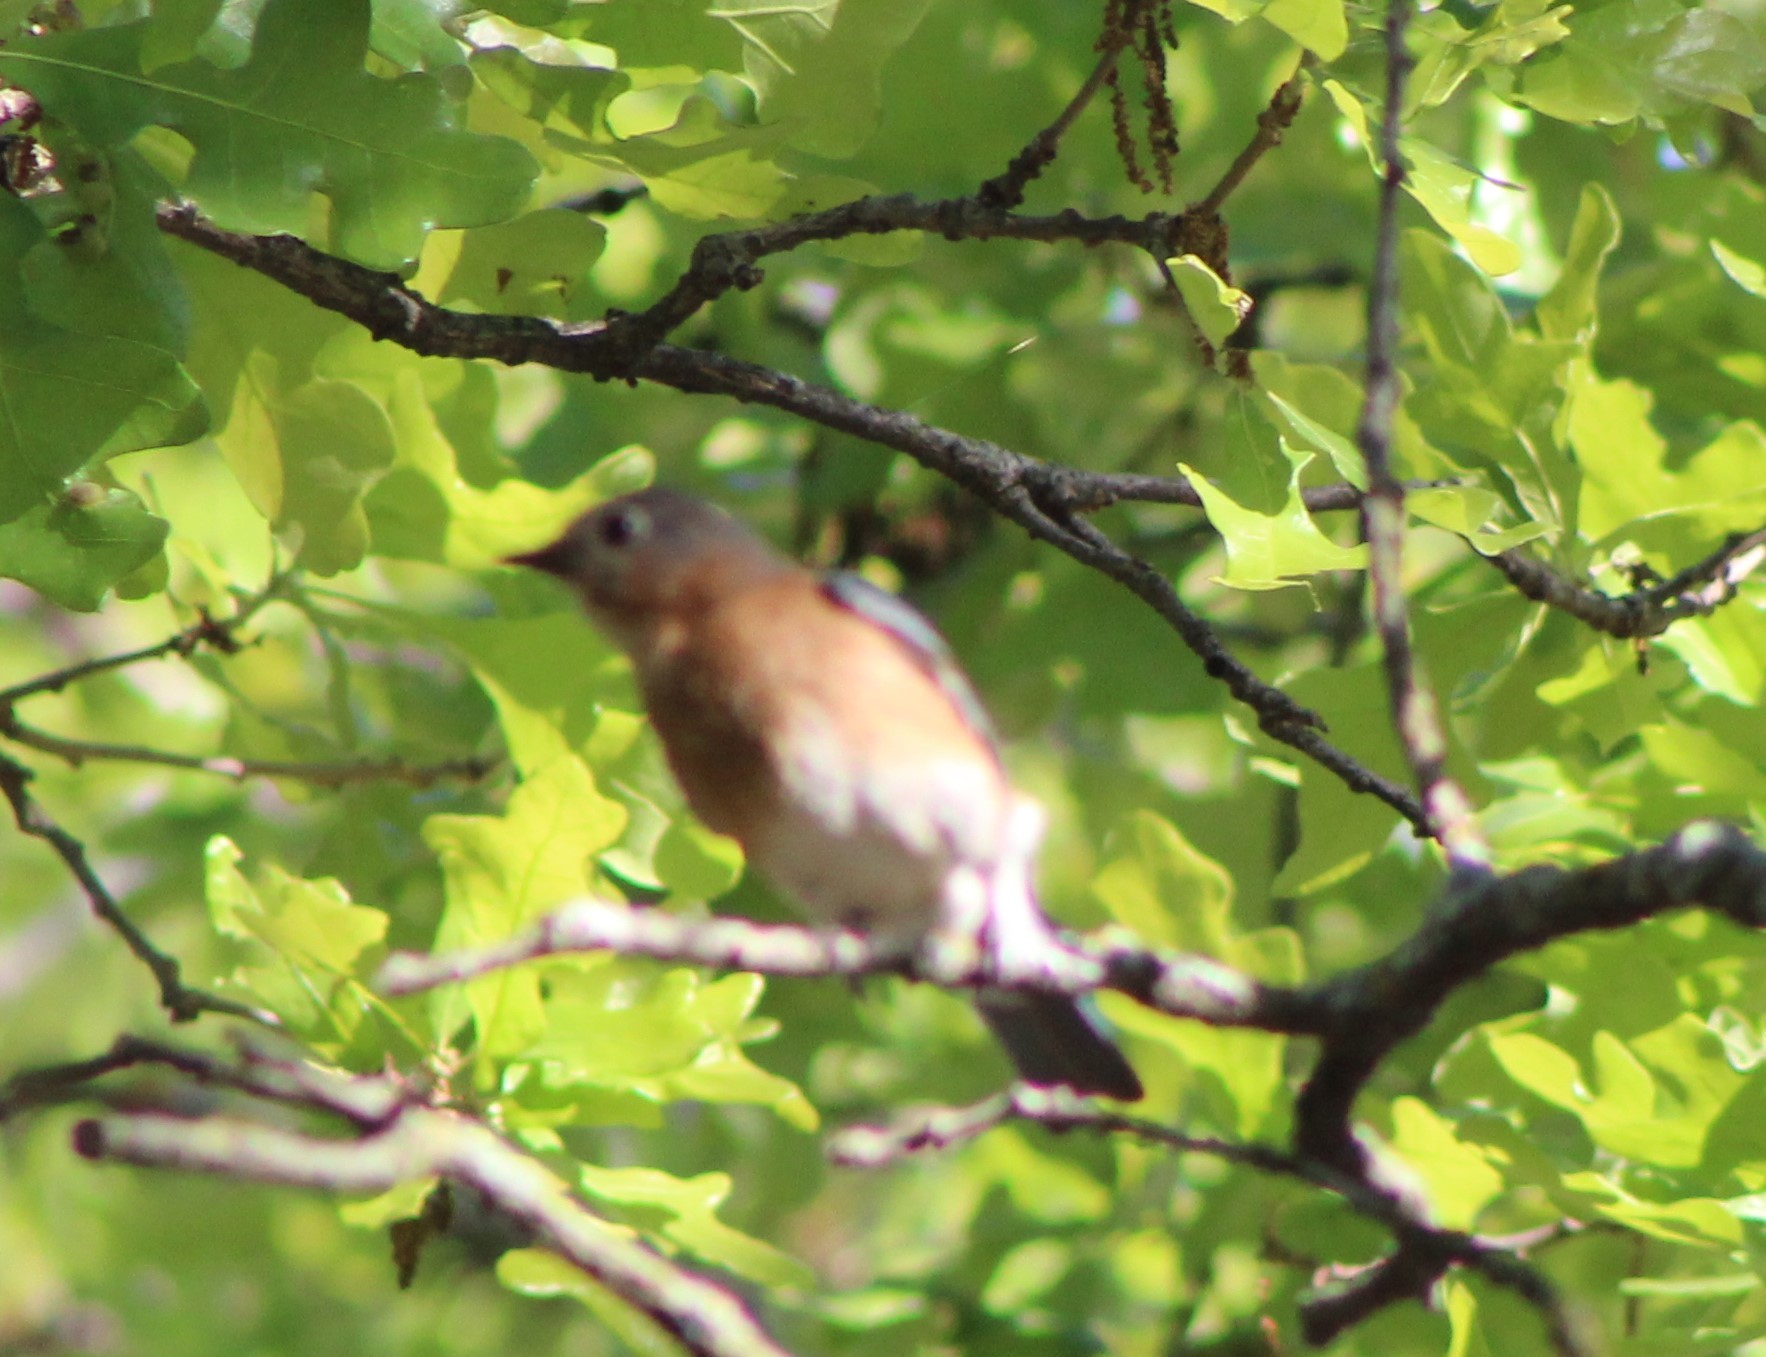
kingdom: Animalia
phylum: Chordata
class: Aves
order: Passeriformes
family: Turdidae
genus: Sialia
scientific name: Sialia sialis
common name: Eastern bluebird
